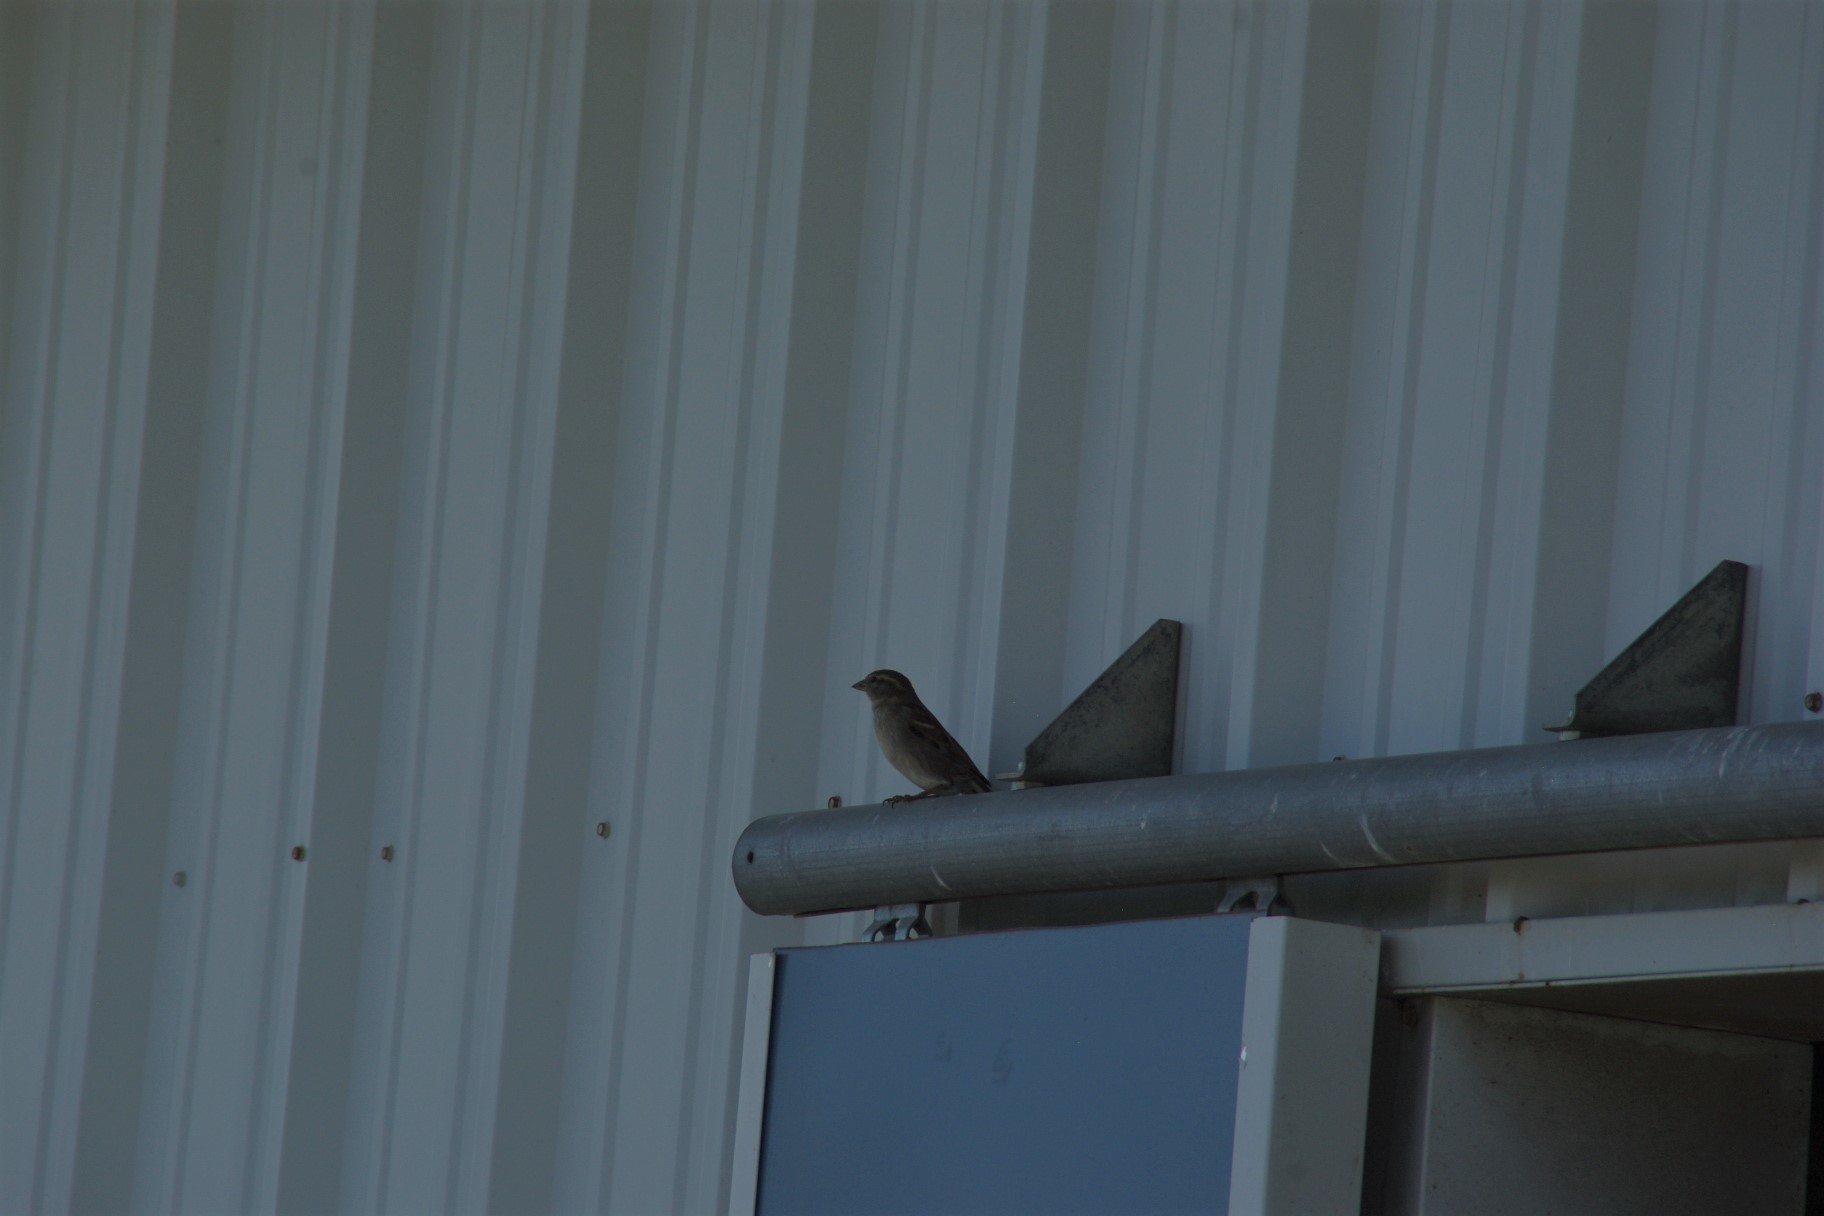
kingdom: Animalia
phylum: Chordata
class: Aves
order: Passeriformes
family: Passeridae
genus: Passer
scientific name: Passer domesticus
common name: House sparrow
